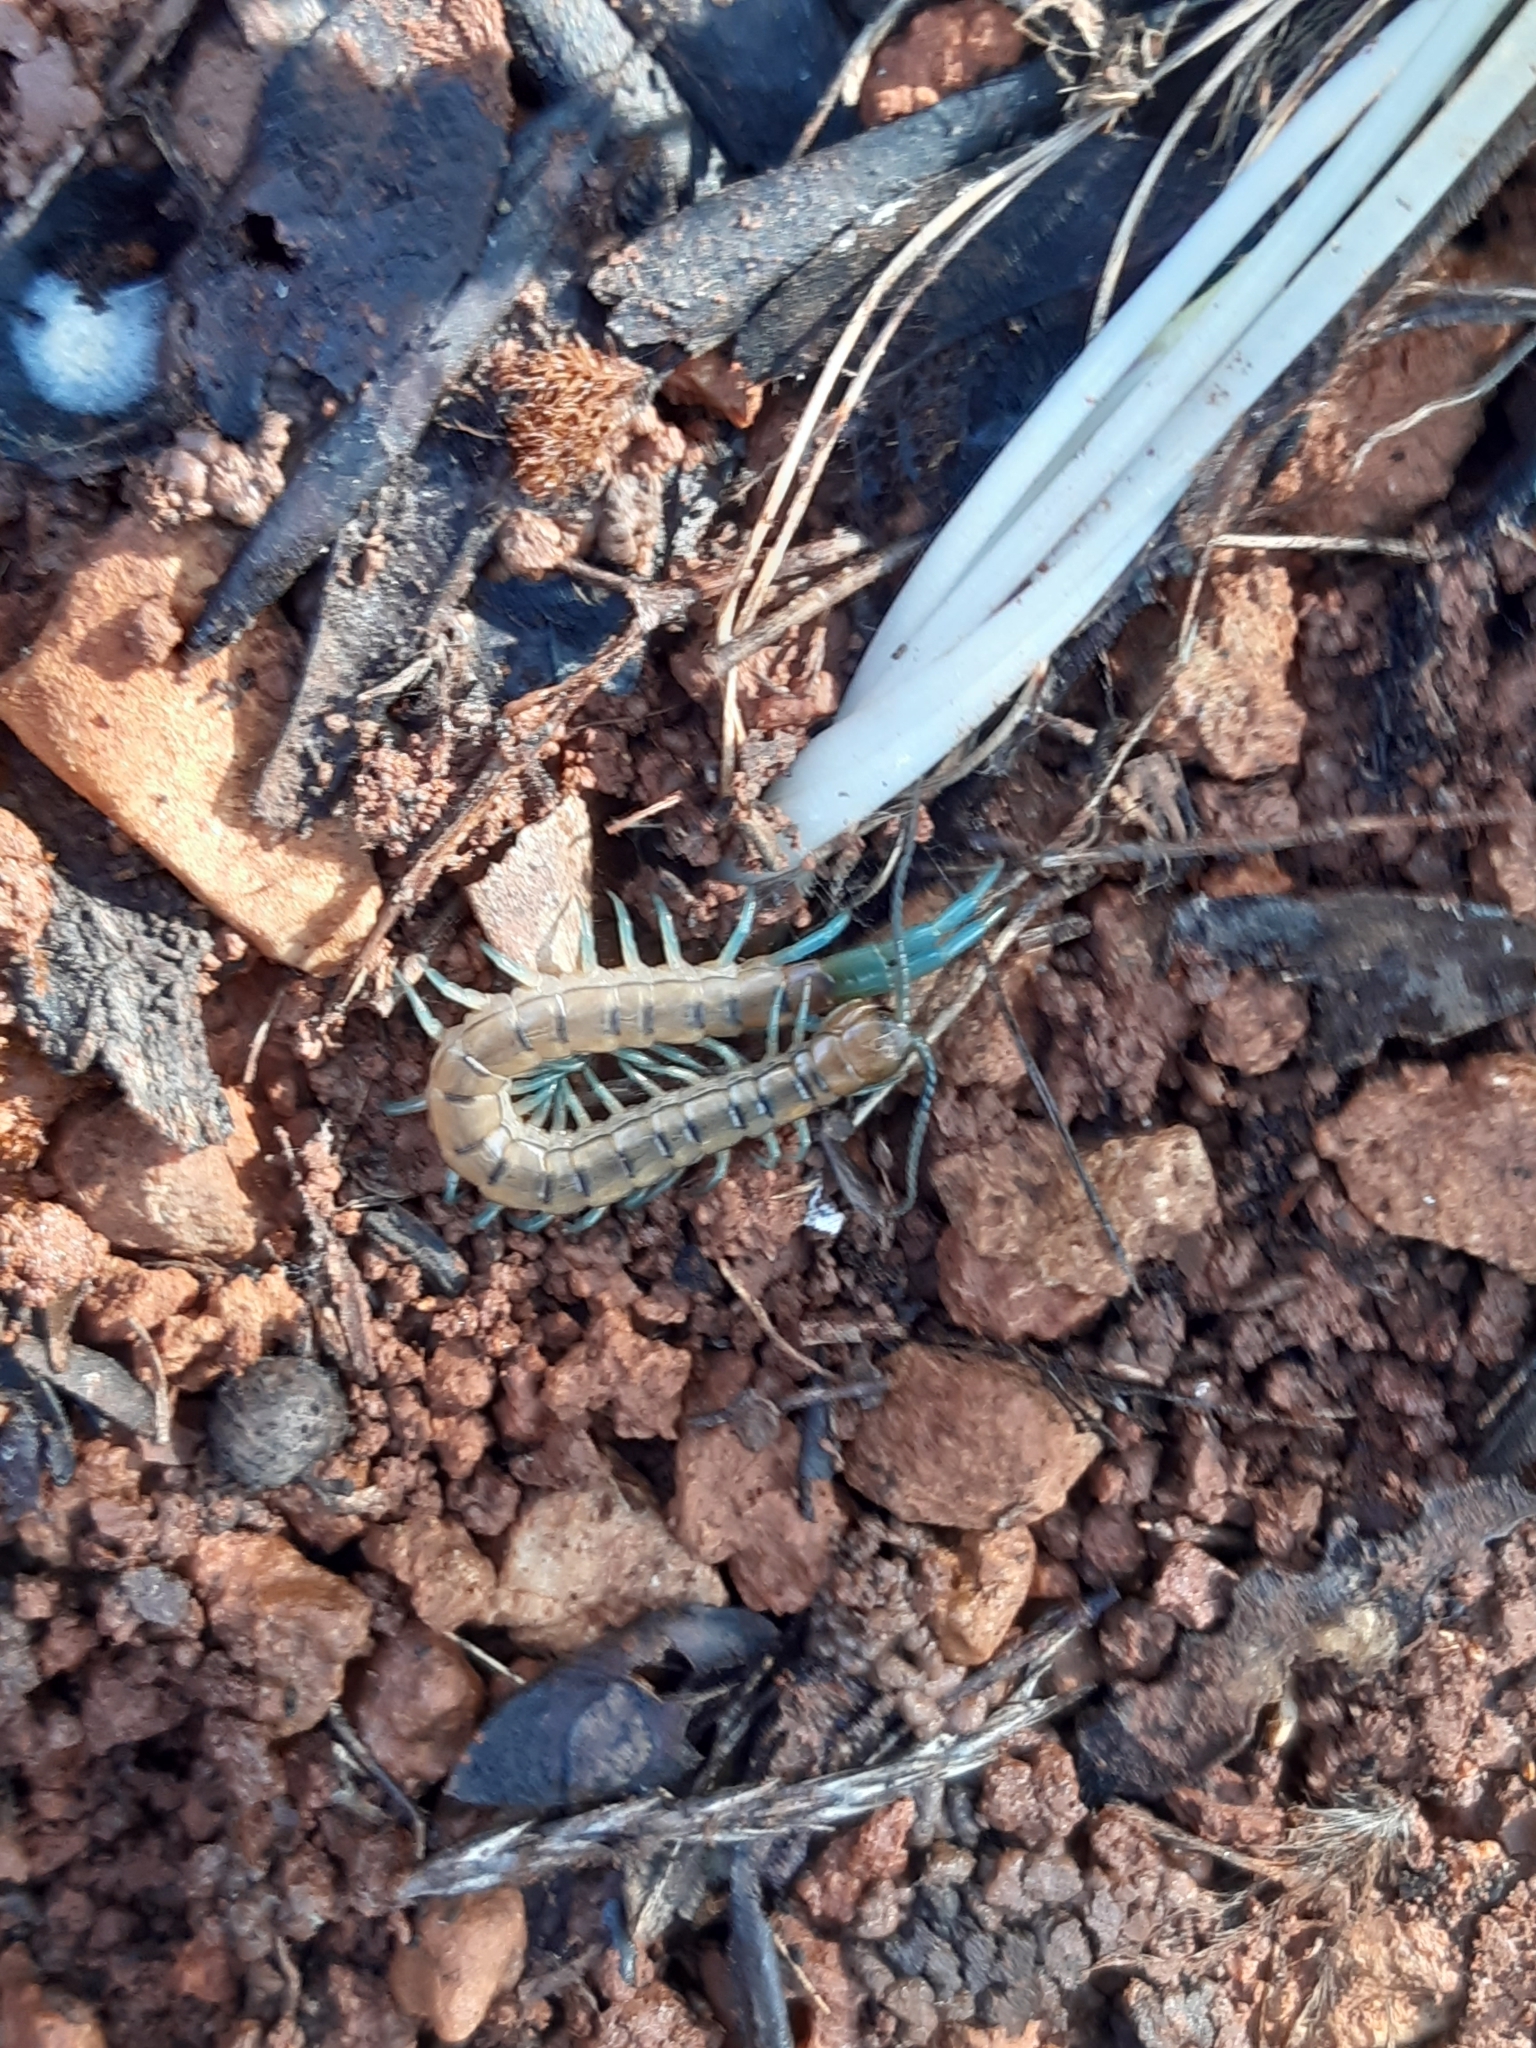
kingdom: Animalia
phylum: Arthropoda
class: Chilopoda
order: Scolopendromorpha
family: Scolopendridae
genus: Scolopendra
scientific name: Scolopendra cingulata
